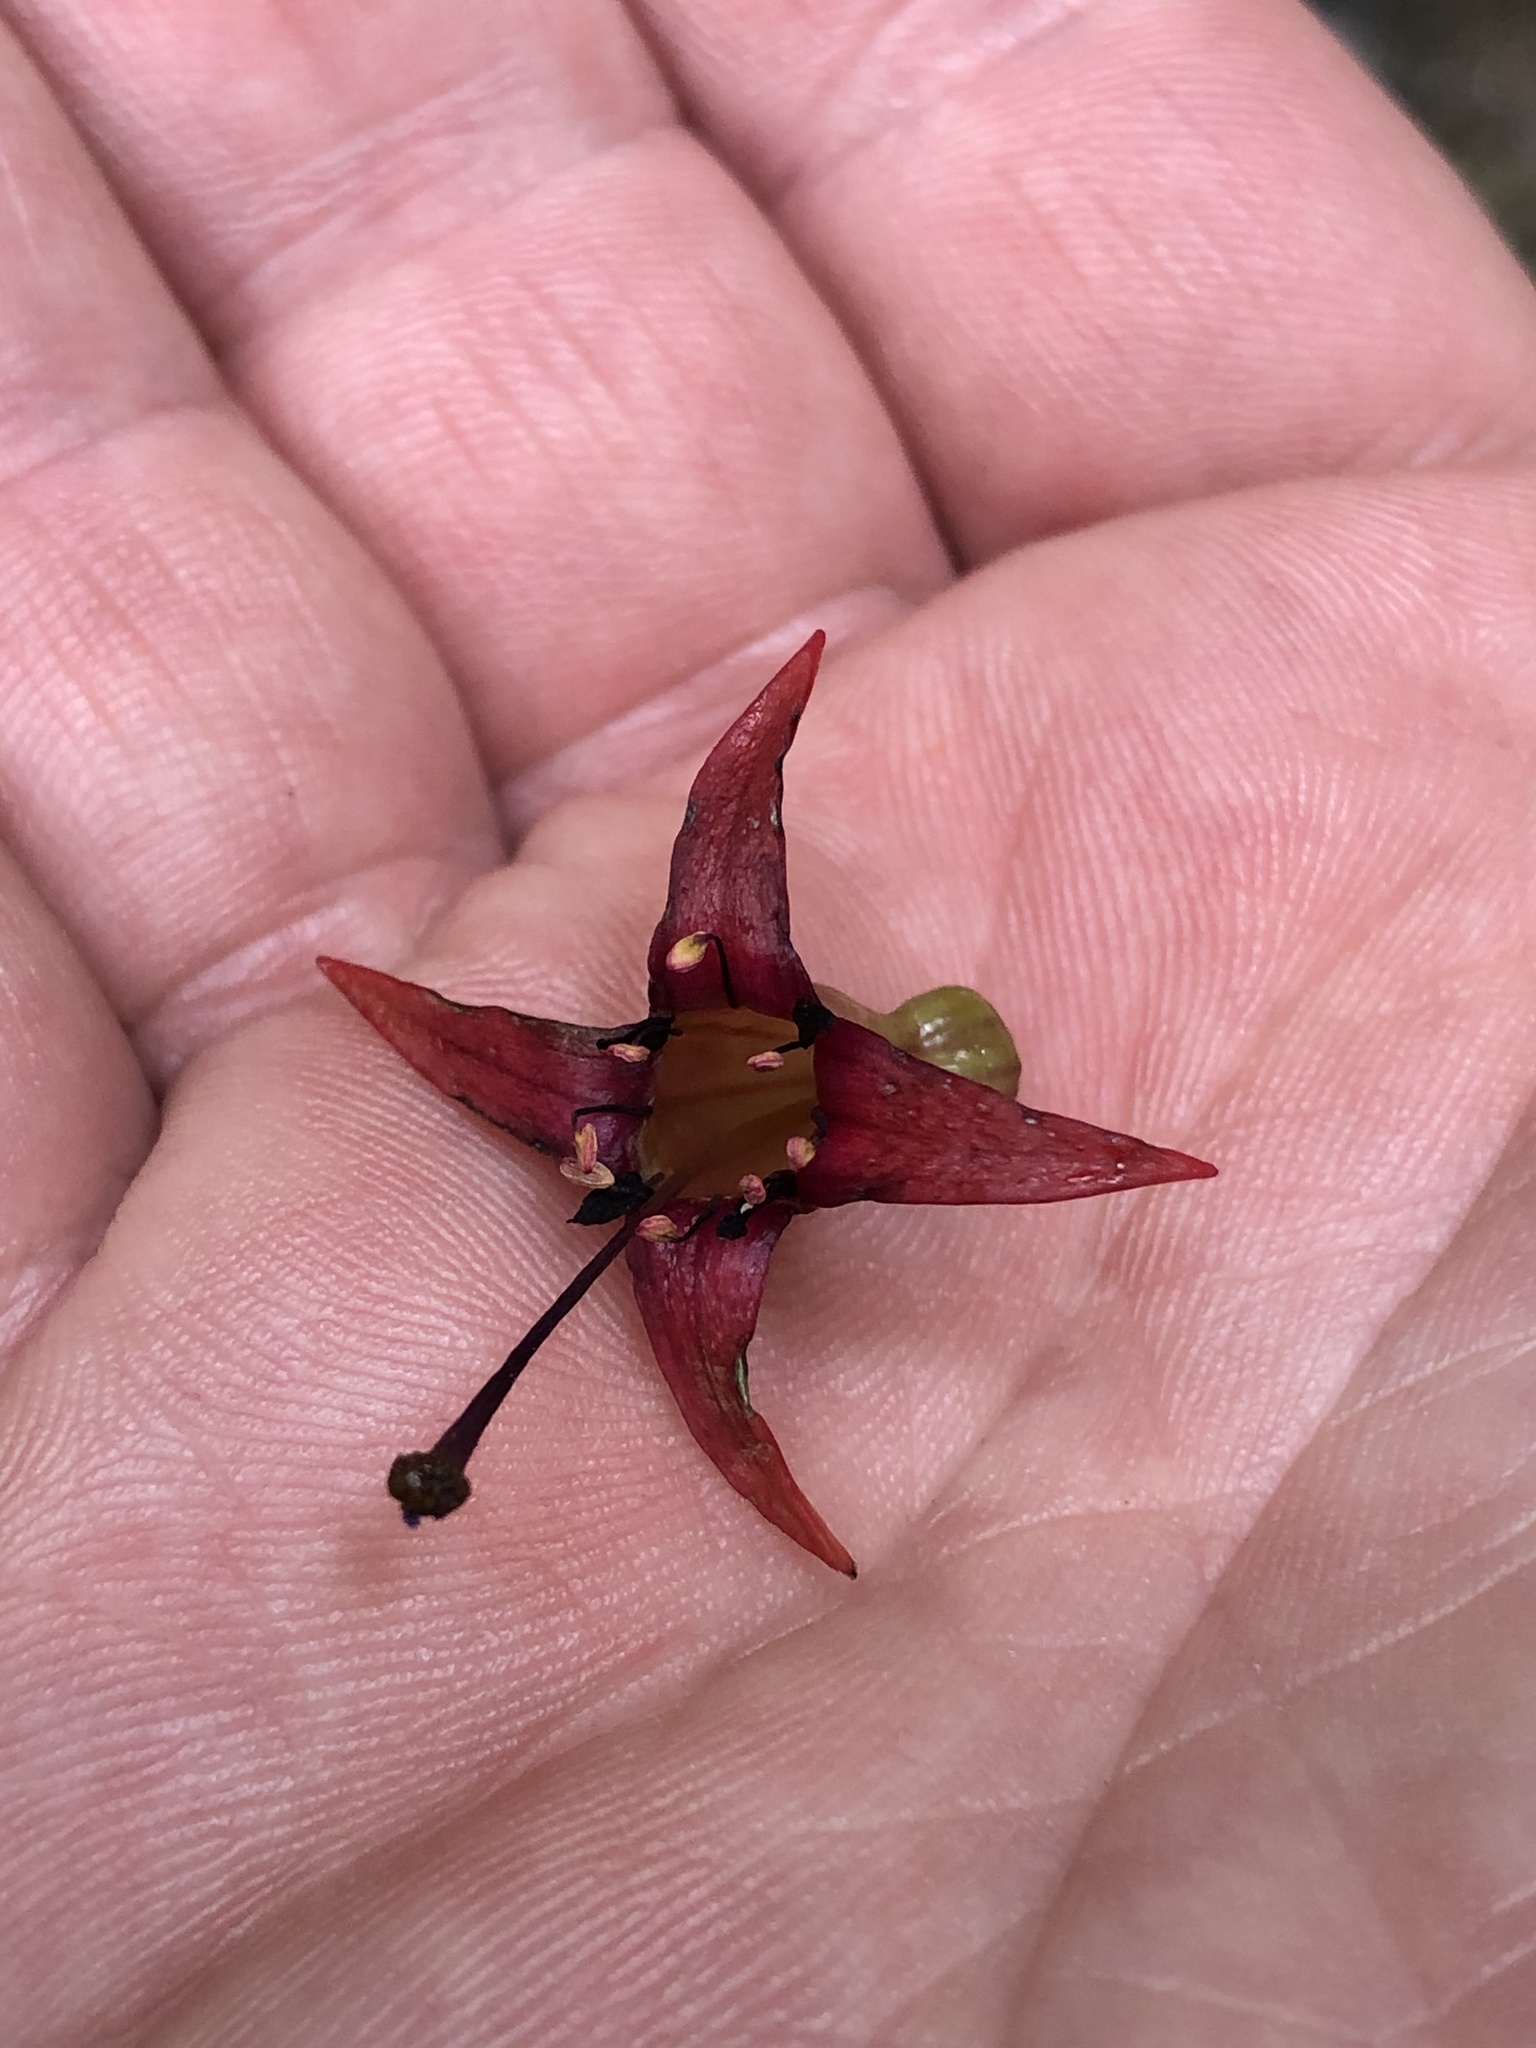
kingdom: Plantae
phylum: Tracheophyta
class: Magnoliopsida
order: Myrtales
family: Onagraceae
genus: Fuchsia
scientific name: Fuchsia excorticata
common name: Tree fuchsia
